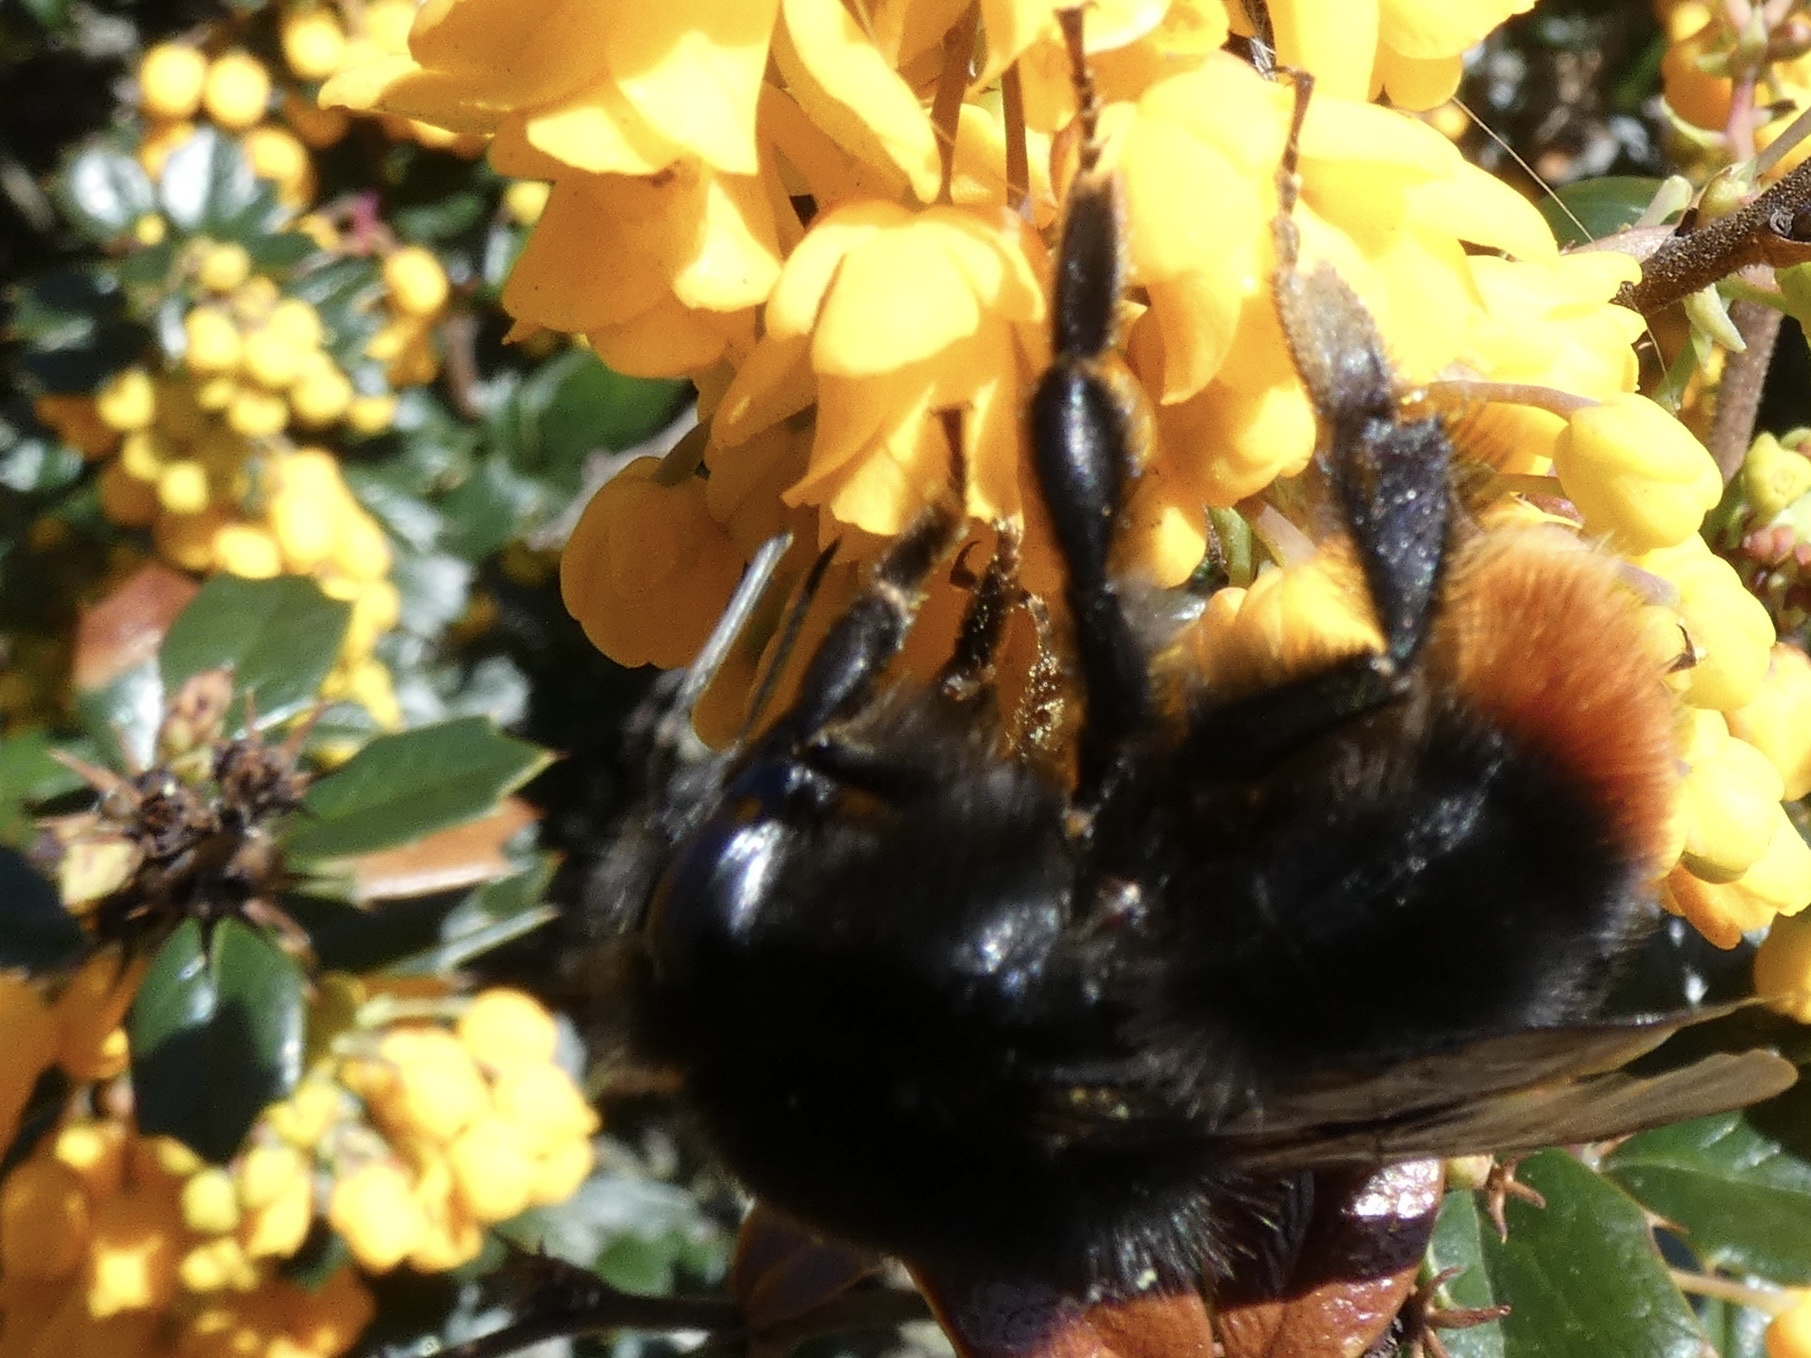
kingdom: Animalia
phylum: Arthropoda
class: Insecta
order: Hymenoptera
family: Apidae
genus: Bombus
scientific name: Bombus lapidarius
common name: Large red-tailed humble-bee
